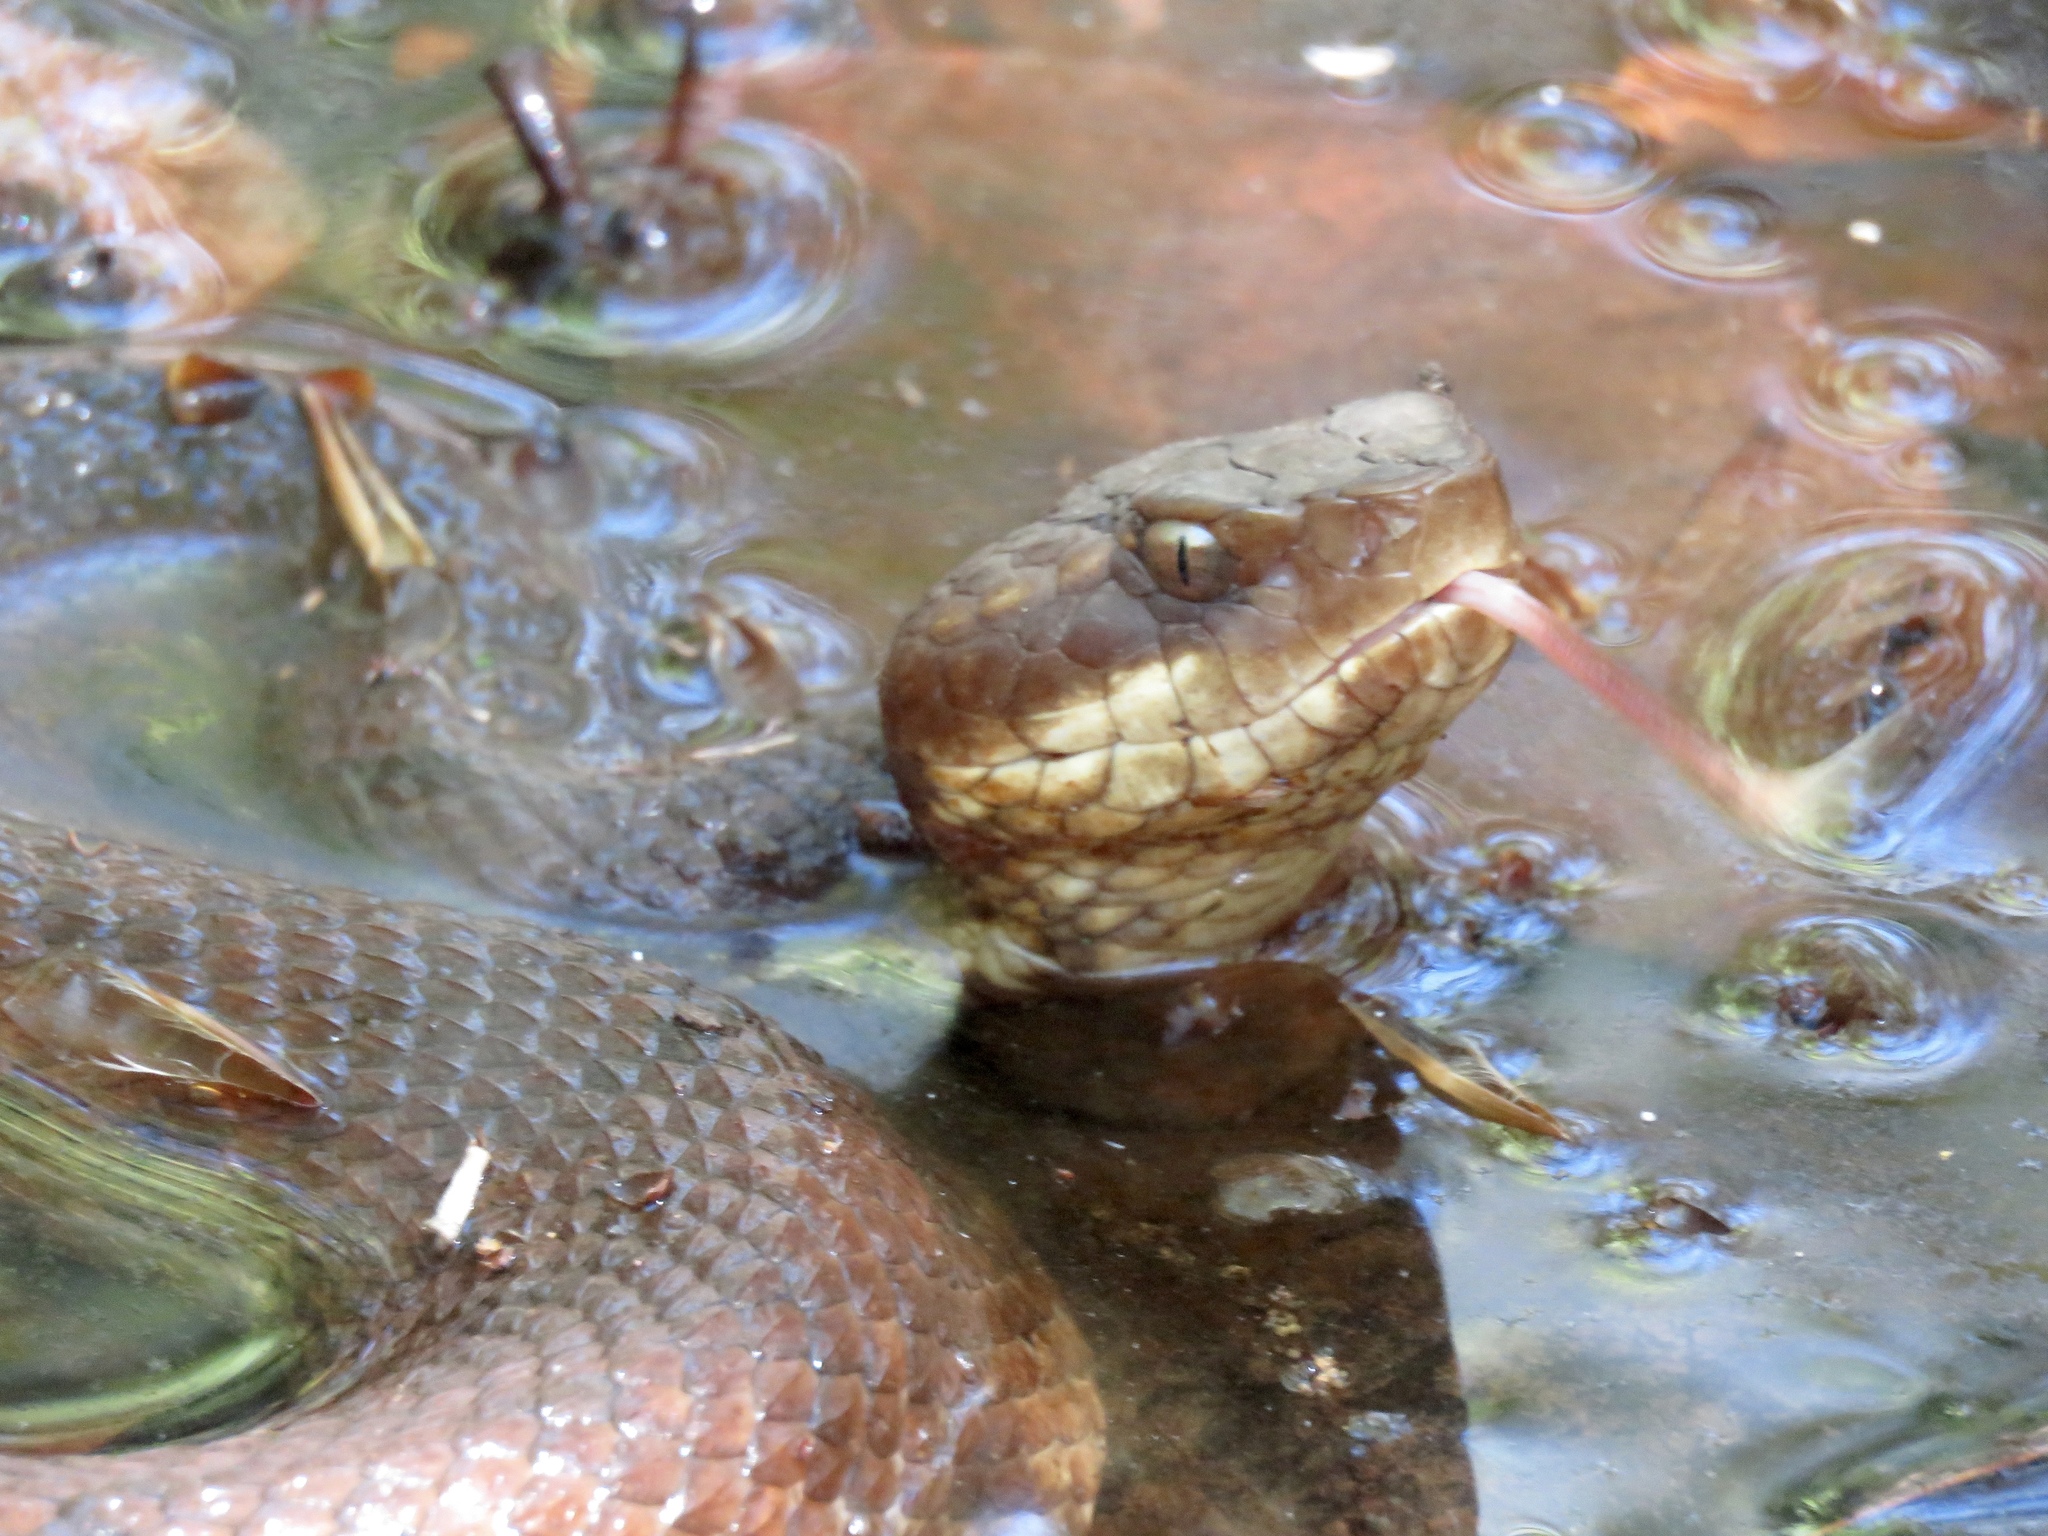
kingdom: Animalia
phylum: Chordata
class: Squamata
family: Viperidae
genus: Agkistrodon
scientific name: Agkistrodon piscivorus
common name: Cottonmouth
